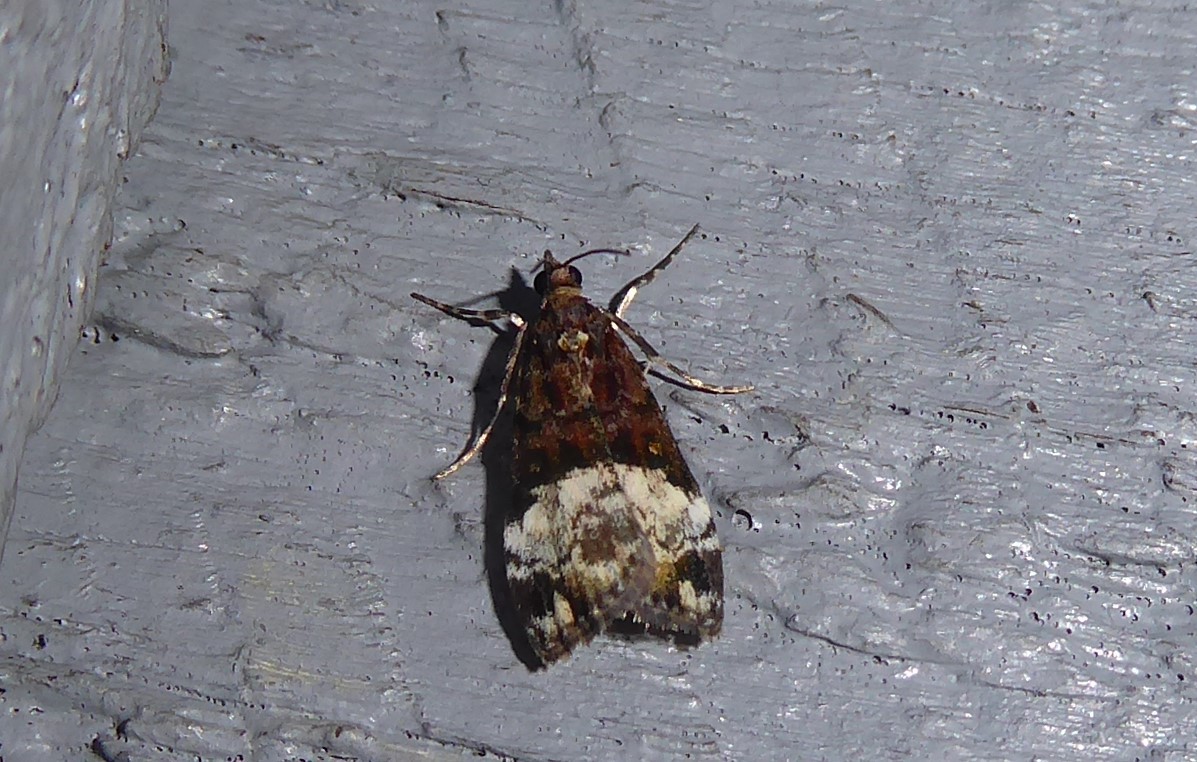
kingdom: Animalia
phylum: Arthropoda
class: Insecta
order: Lepidoptera
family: Crambidae
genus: Scoparia
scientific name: Scoparia minusculalis
